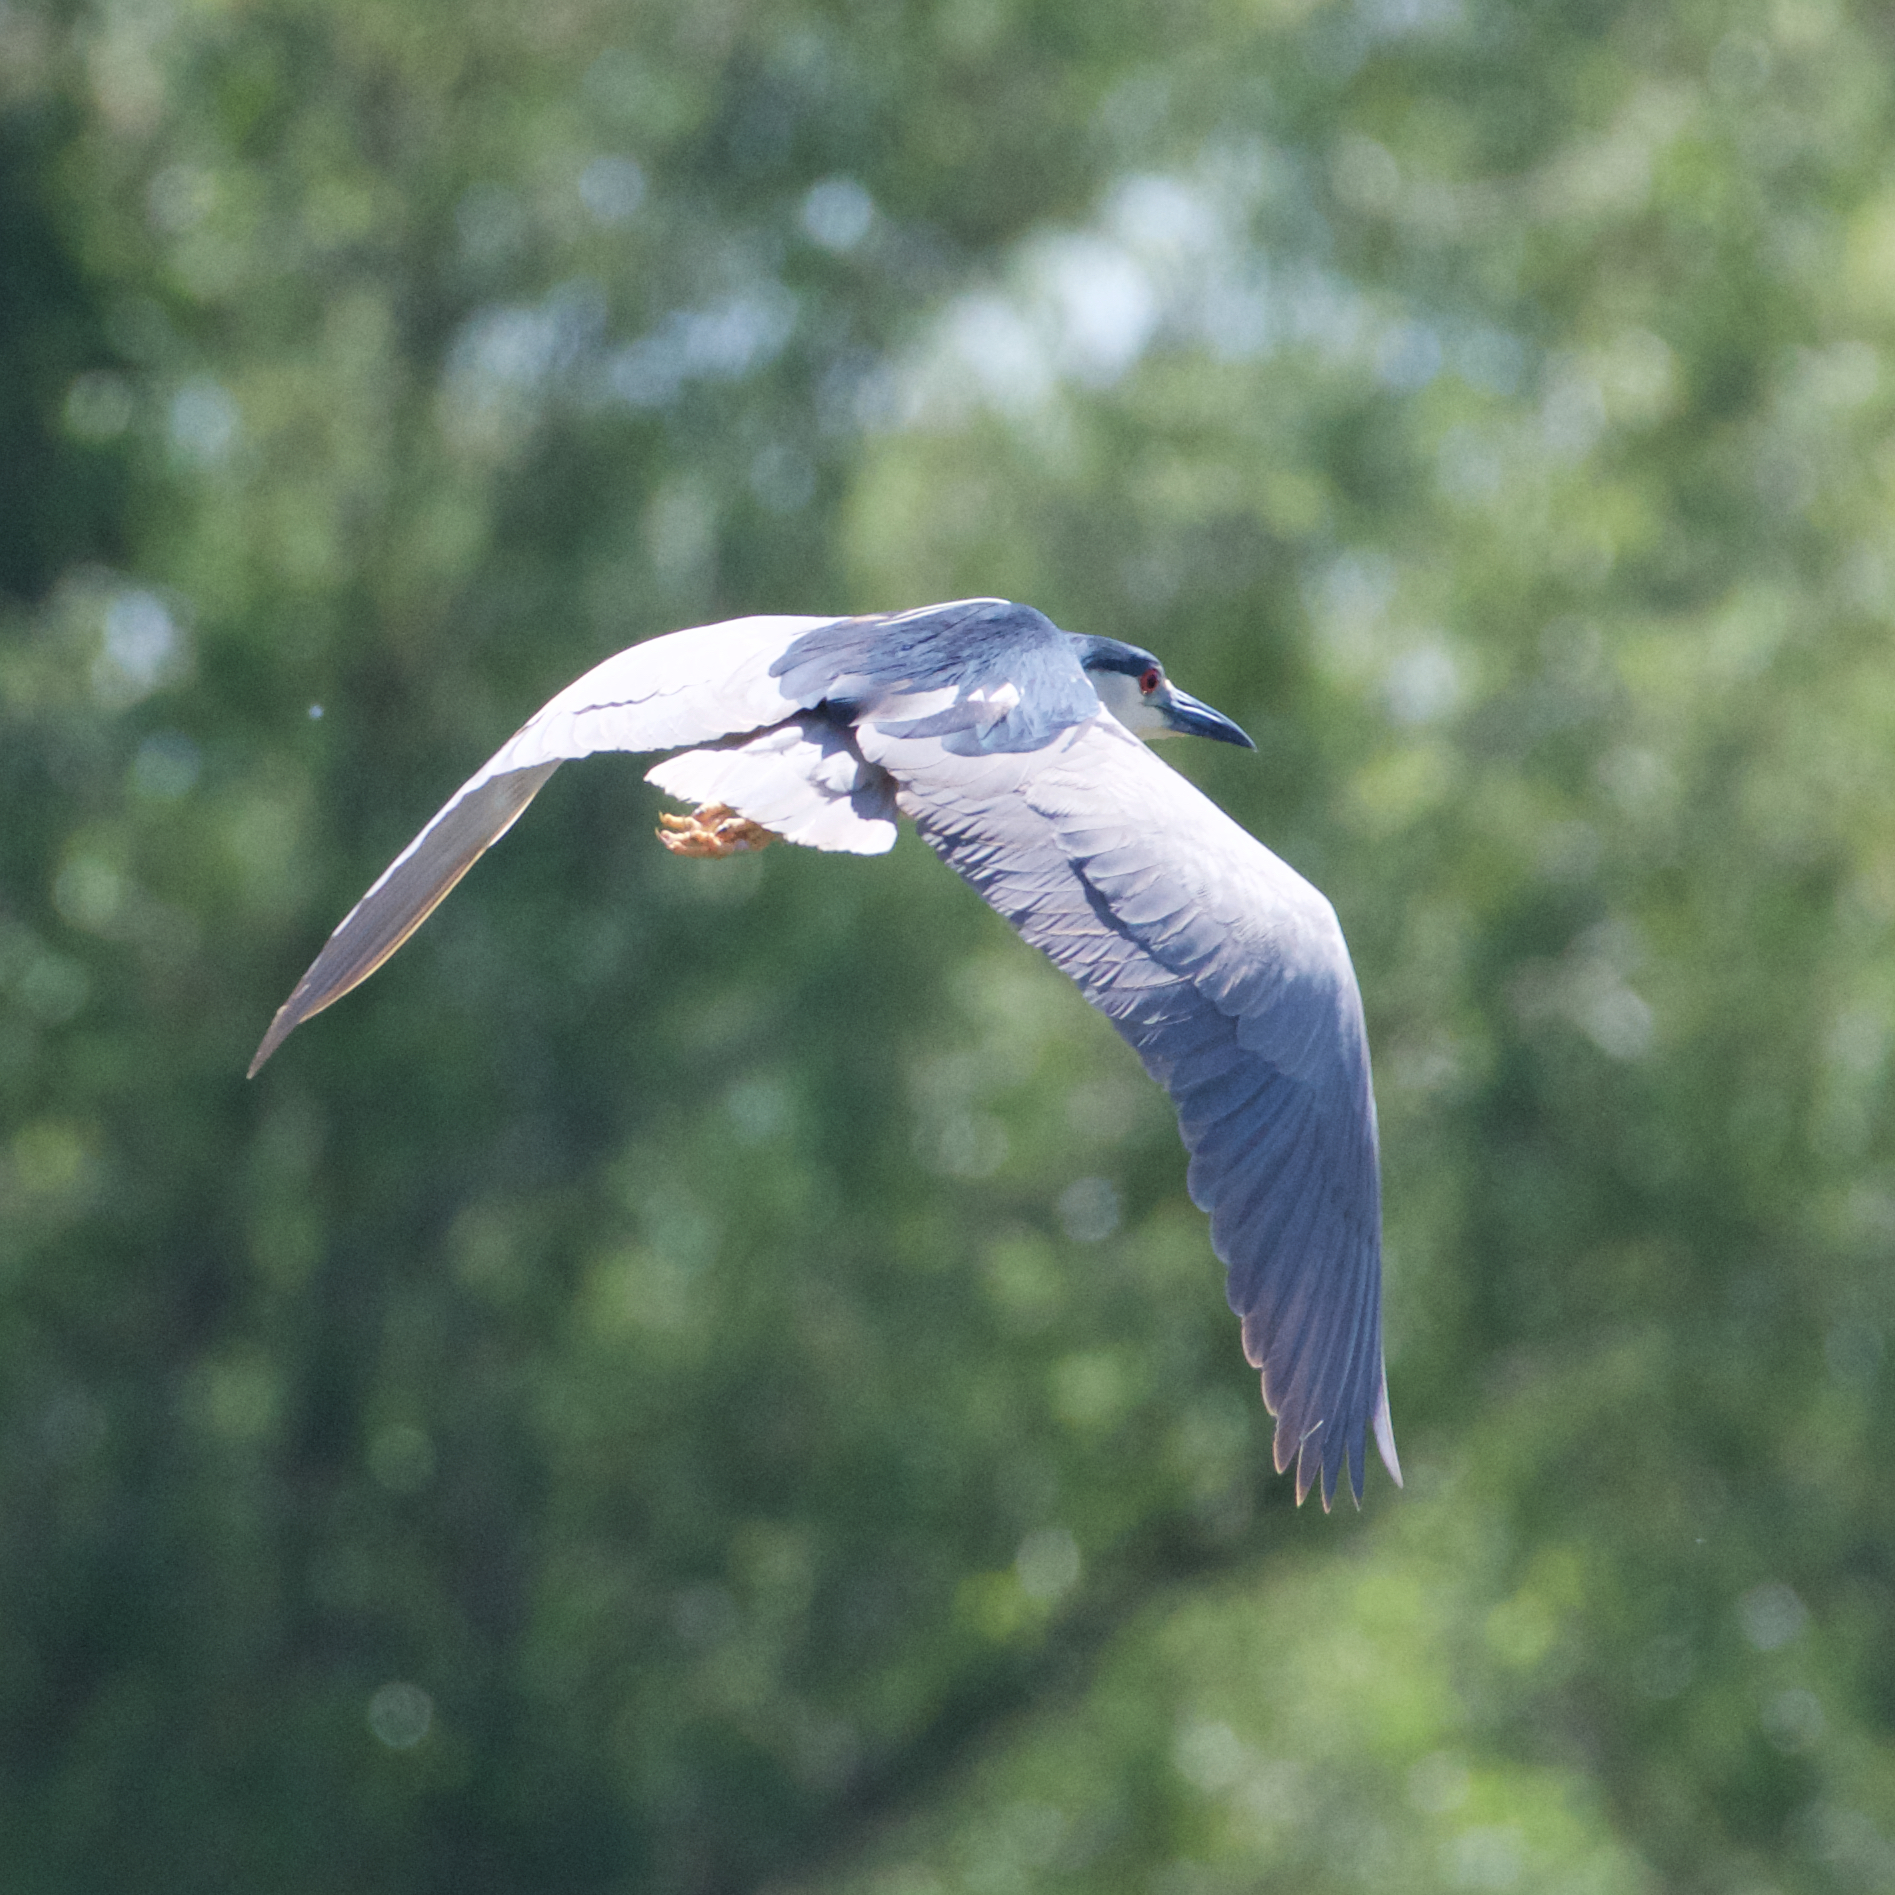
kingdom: Animalia
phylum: Chordata
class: Aves
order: Pelecaniformes
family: Ardeidae
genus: Nycticorax
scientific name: Nycticorax nycticorax
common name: Black-crowned night heron
